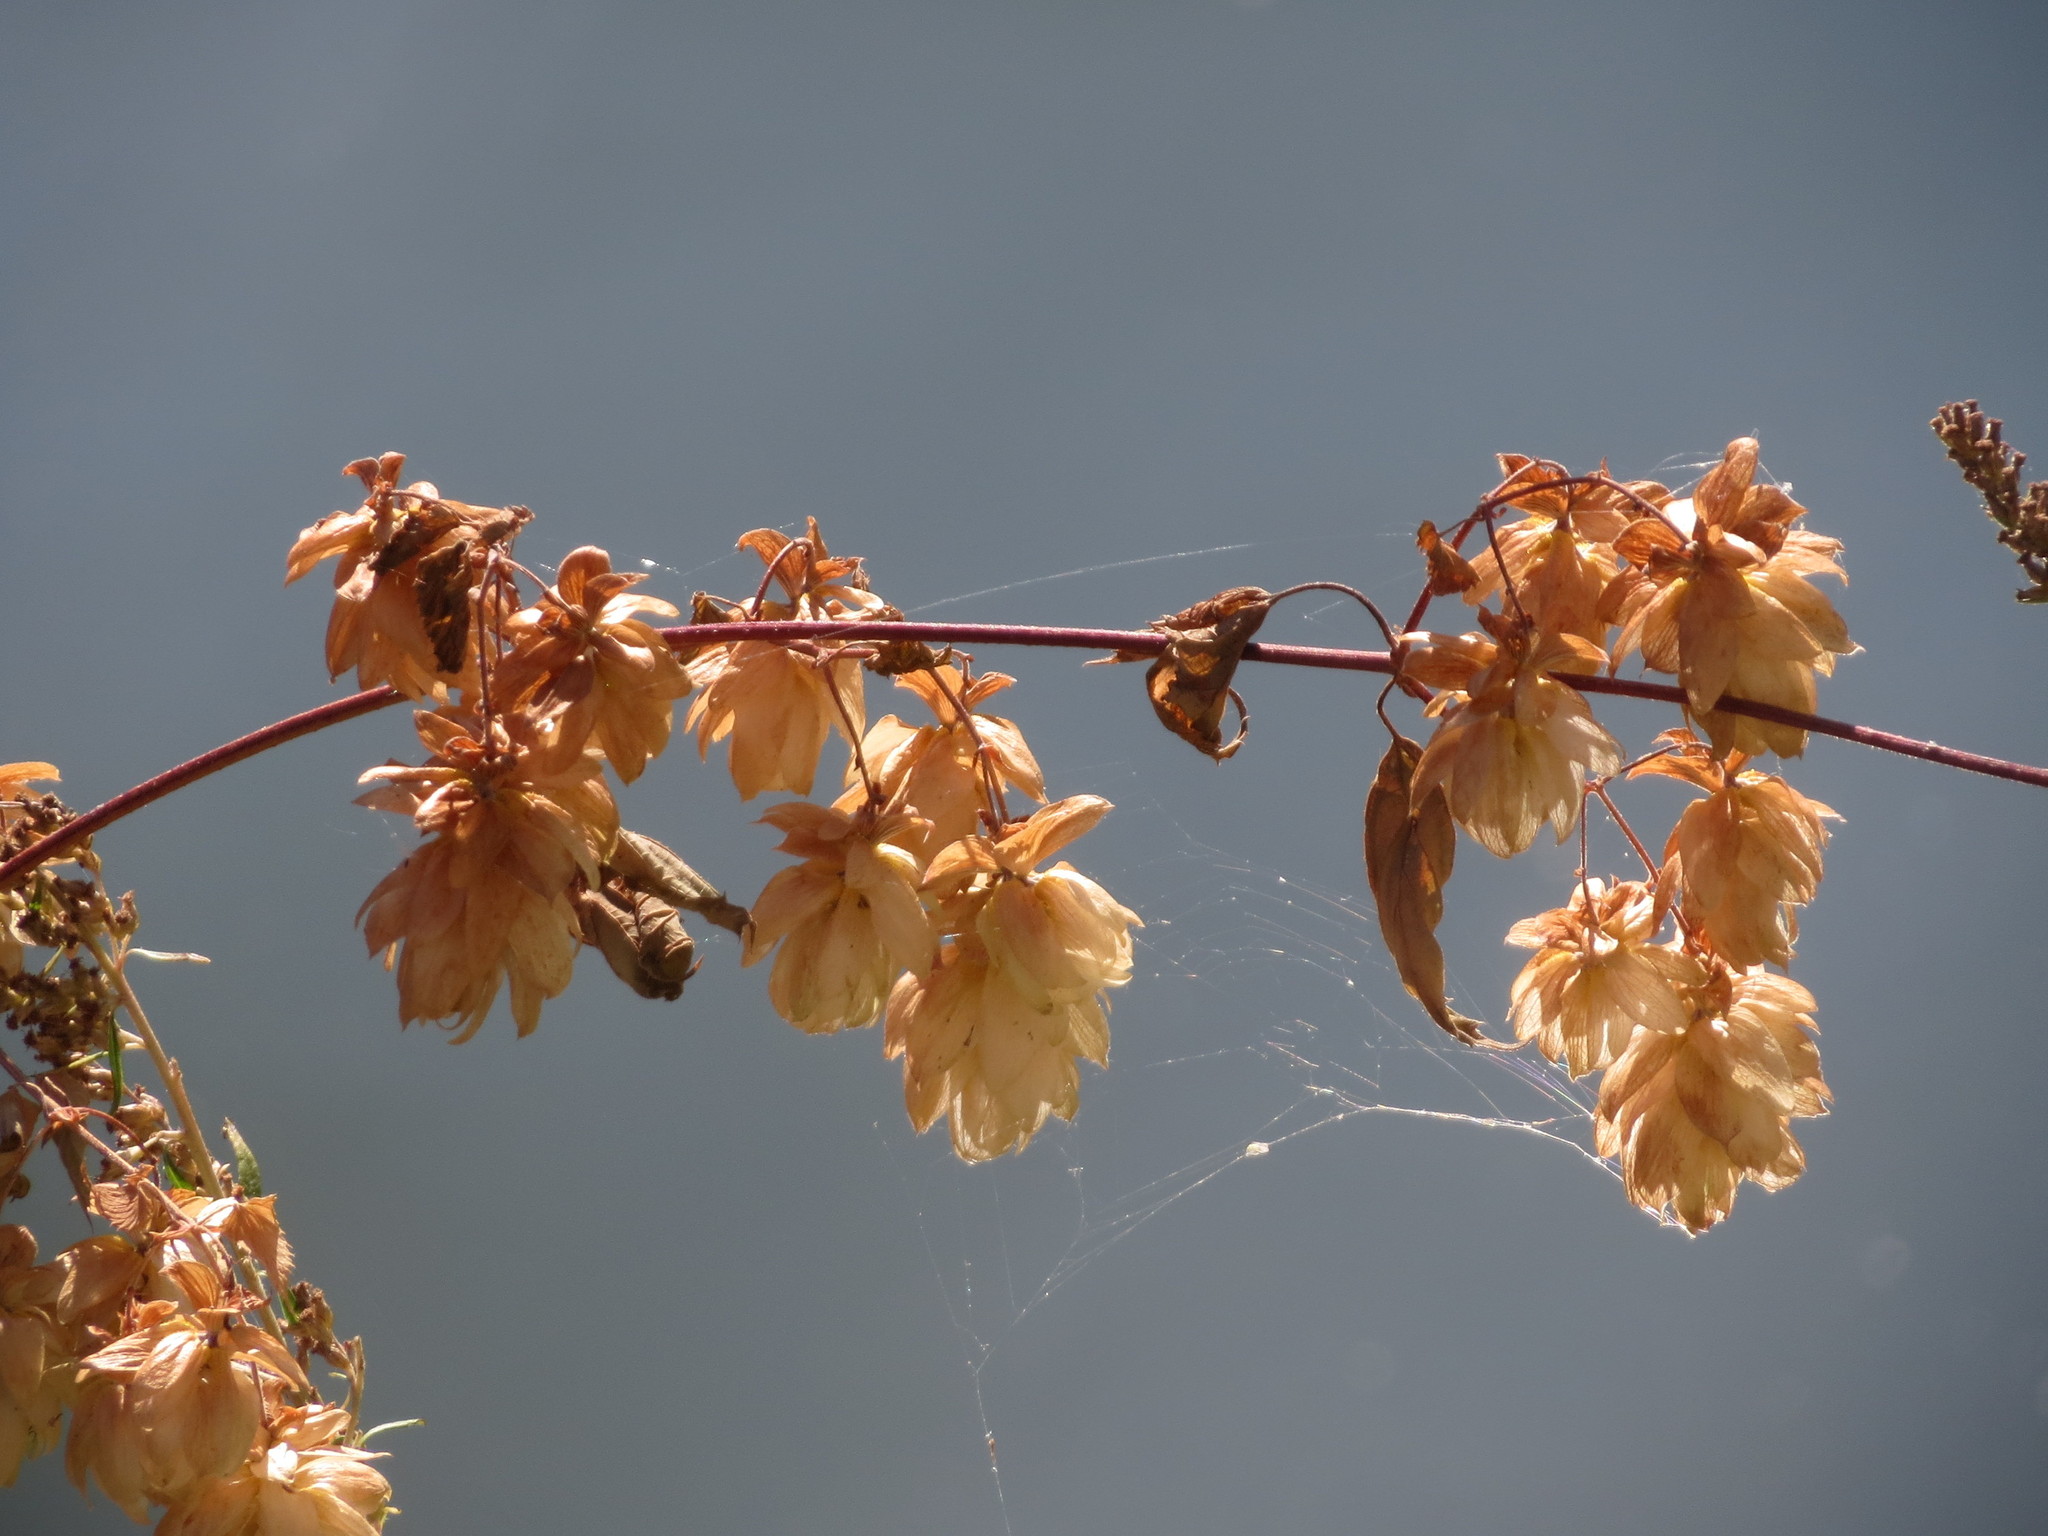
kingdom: Plantae
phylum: Tracheophyta
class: Magnoliopsida
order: Rosales
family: Cannabaceae
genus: Humulus
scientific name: Humulus lupulus
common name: Hop
